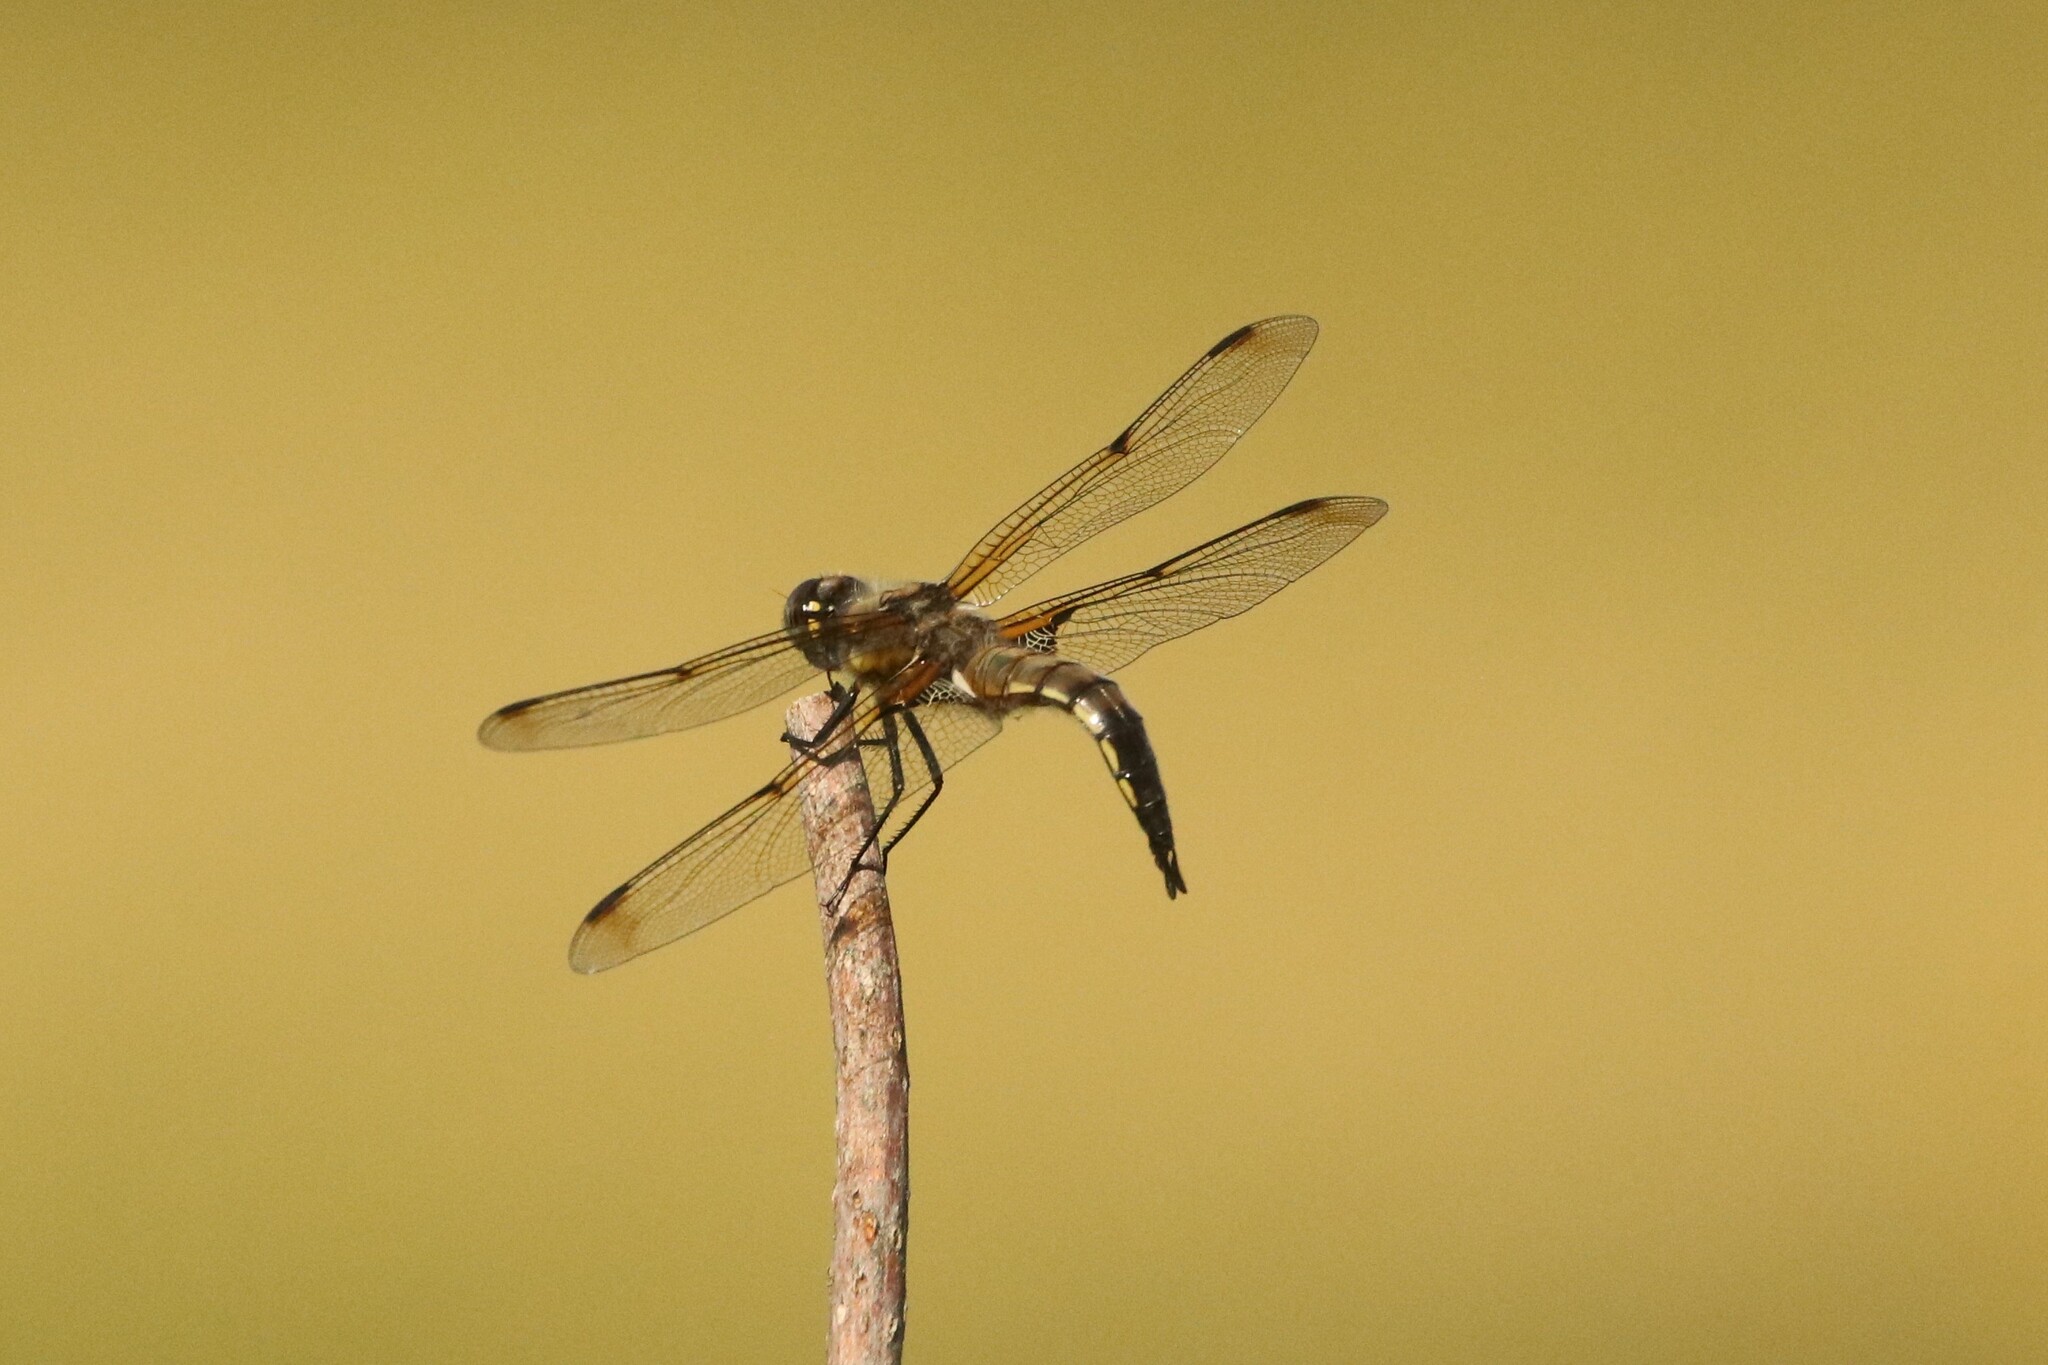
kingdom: Animalia
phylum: Arthropoda
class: Insecta
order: Odonata
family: Libellulidae
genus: Libellula
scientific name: Libellula quadrimaculata
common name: Four-spotted chaser
